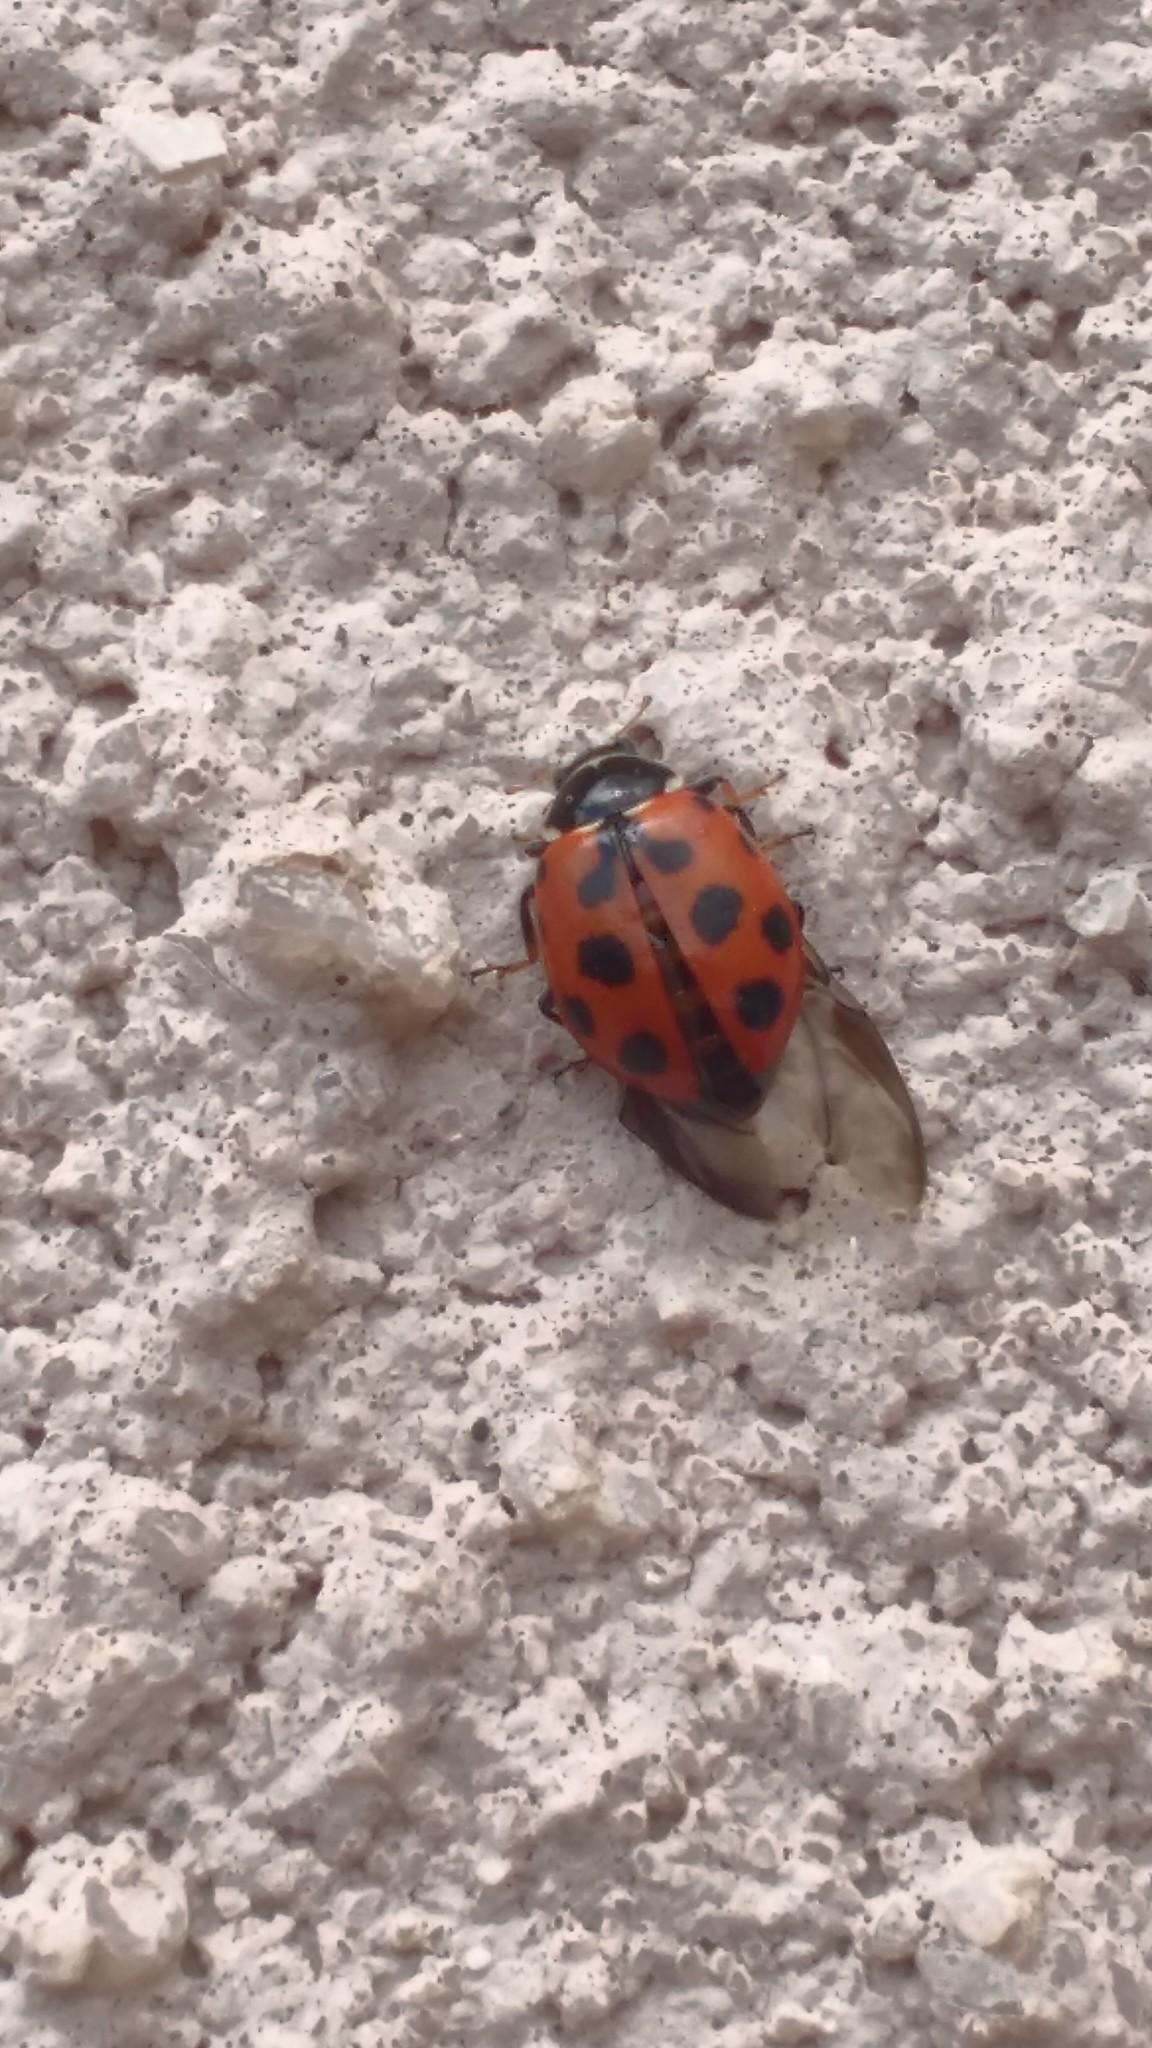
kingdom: Animalia
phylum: Arthropoda
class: Insecta
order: Coleoptera
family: Coccinellidae
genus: Hippodamia
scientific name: Hippodamia variegata
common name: Ladybird beetle
